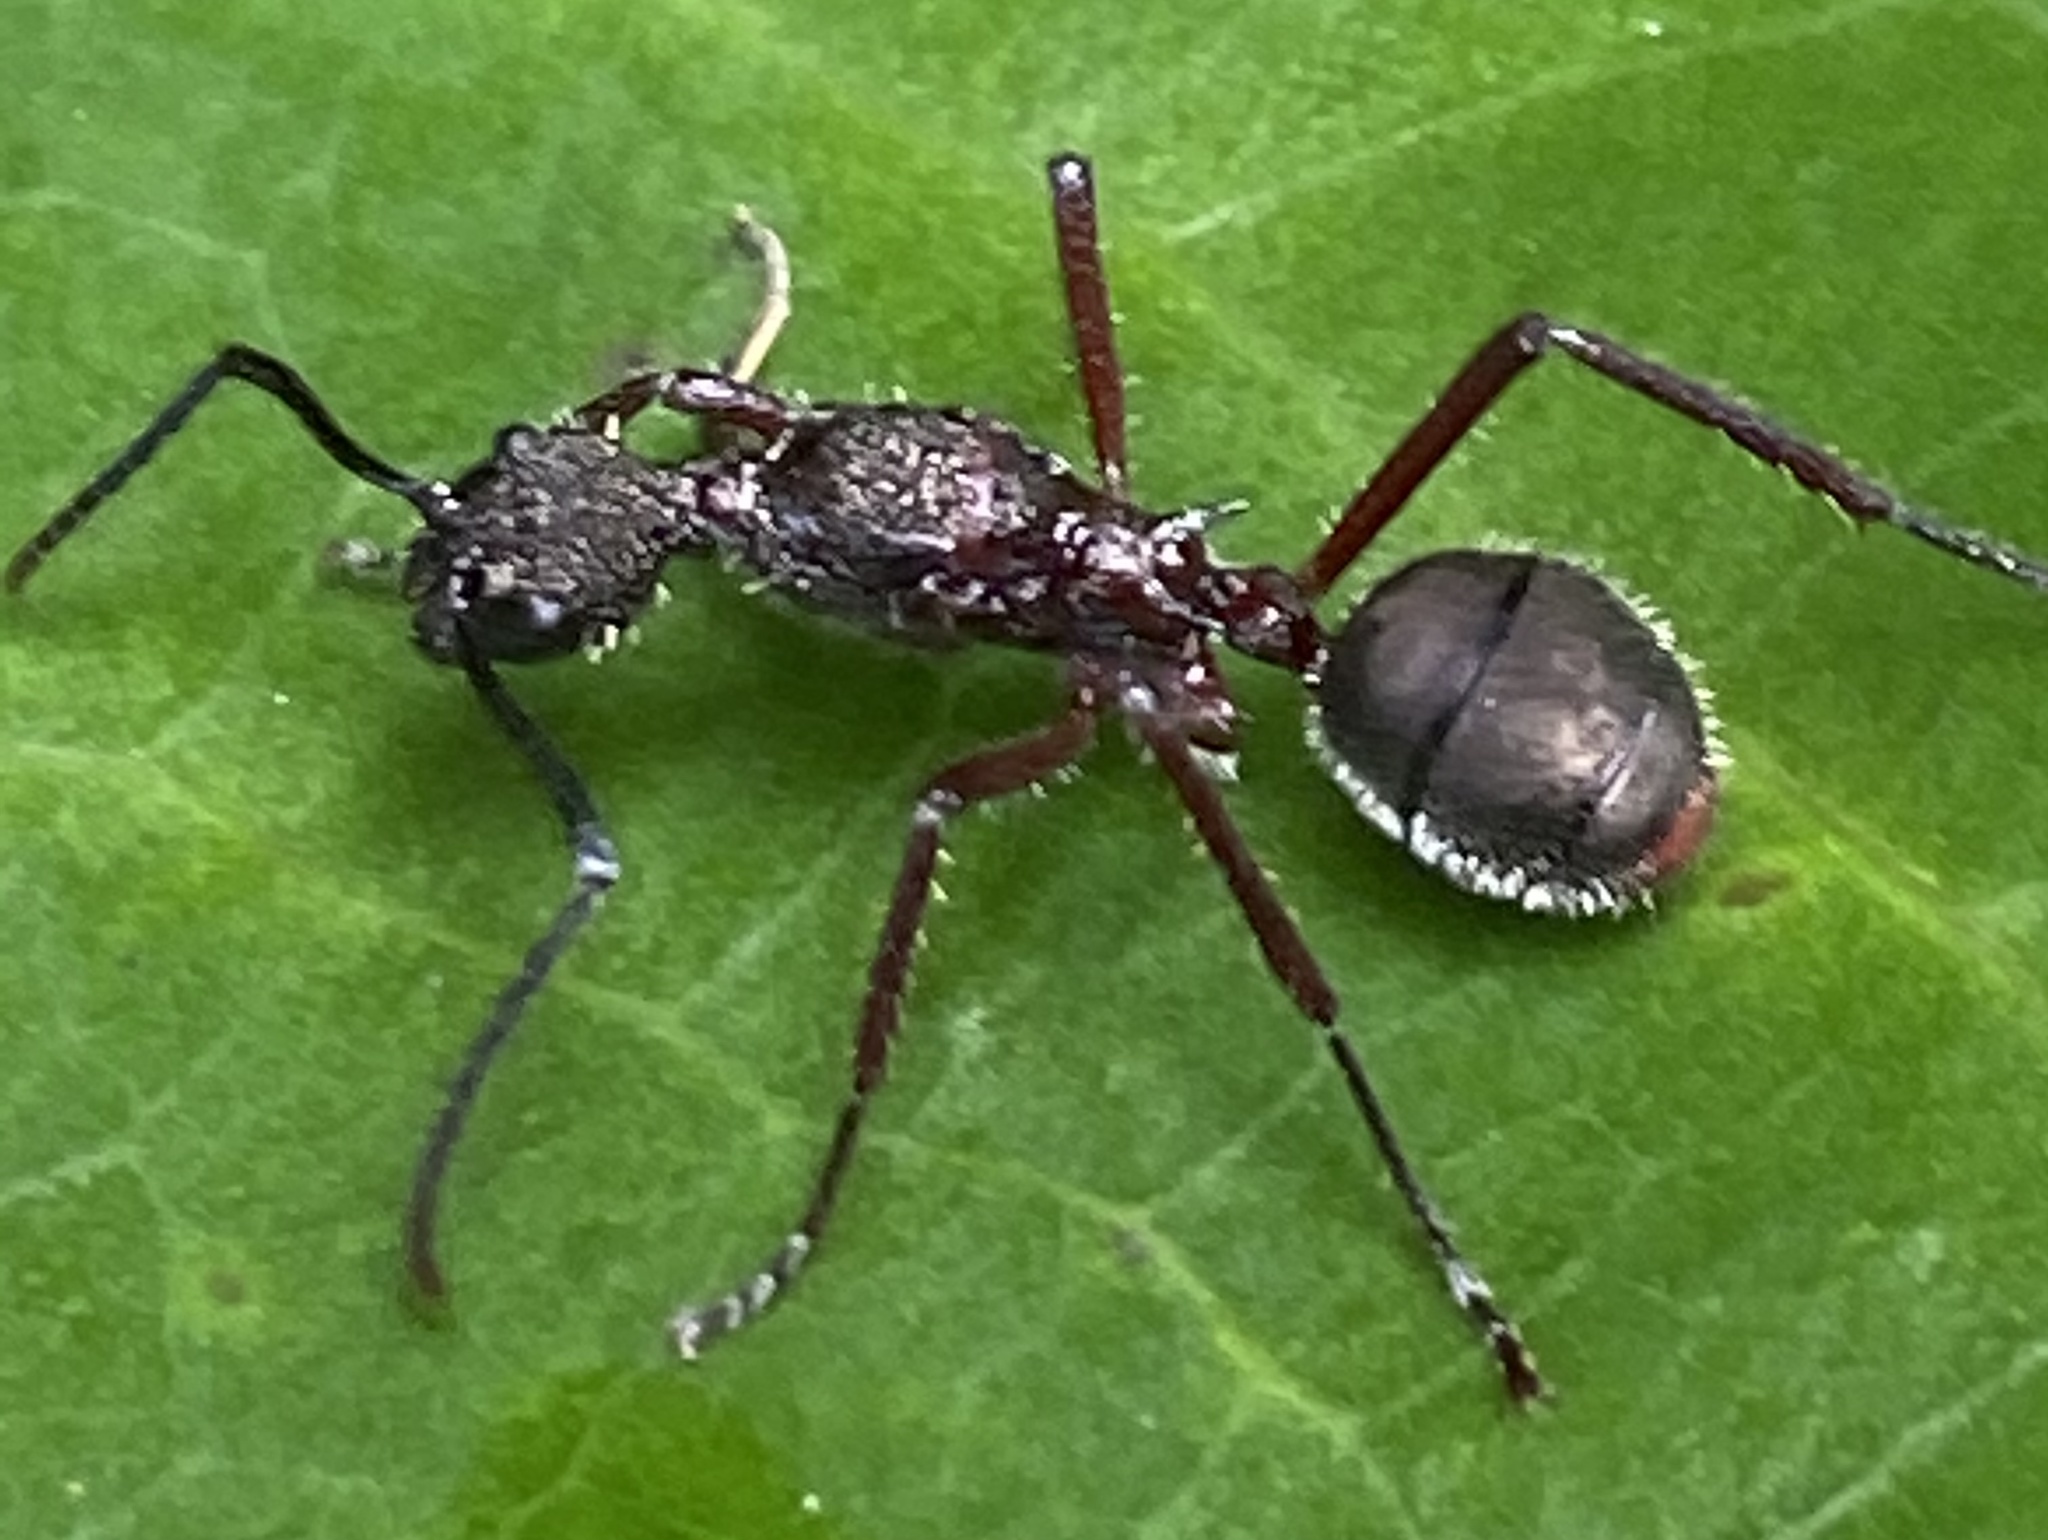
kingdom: Animalia
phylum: Arthropoda
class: Insecta
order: Hymenoptera
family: Formicidae
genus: Dolichoderus
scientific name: Dolichoderus attelaboides
